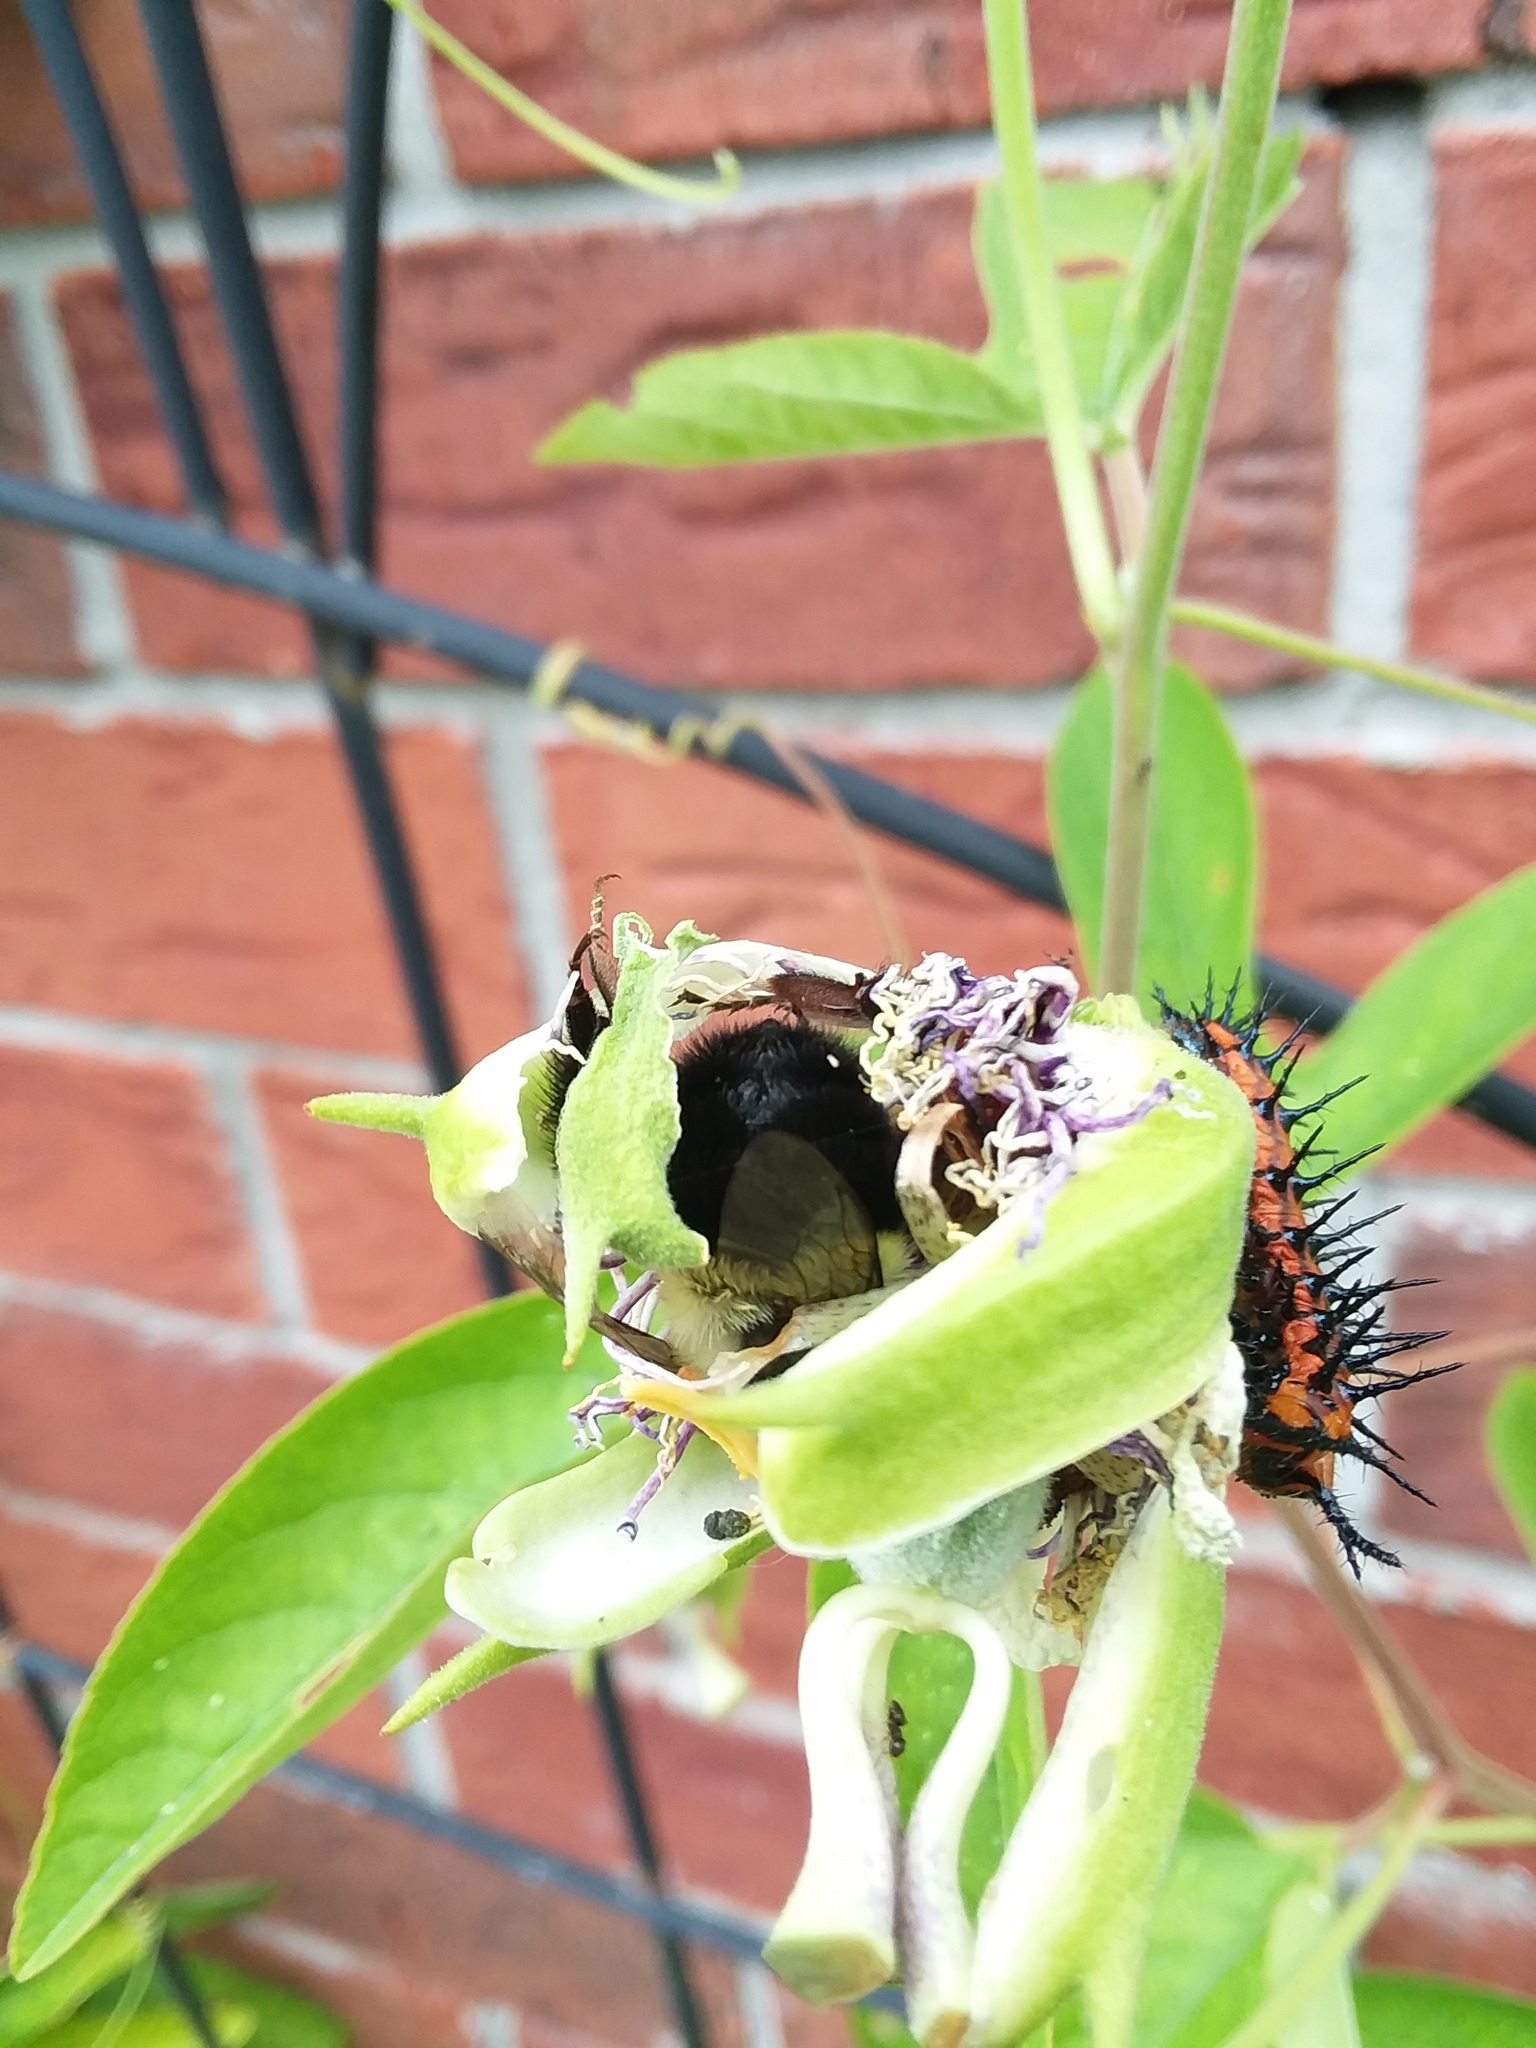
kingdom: Animalia
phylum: Arthropoda
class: Insecta
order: Hymenoptera
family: Apidae
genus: Bombus
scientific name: Bombus impatiens
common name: Common eastern bumble bee
